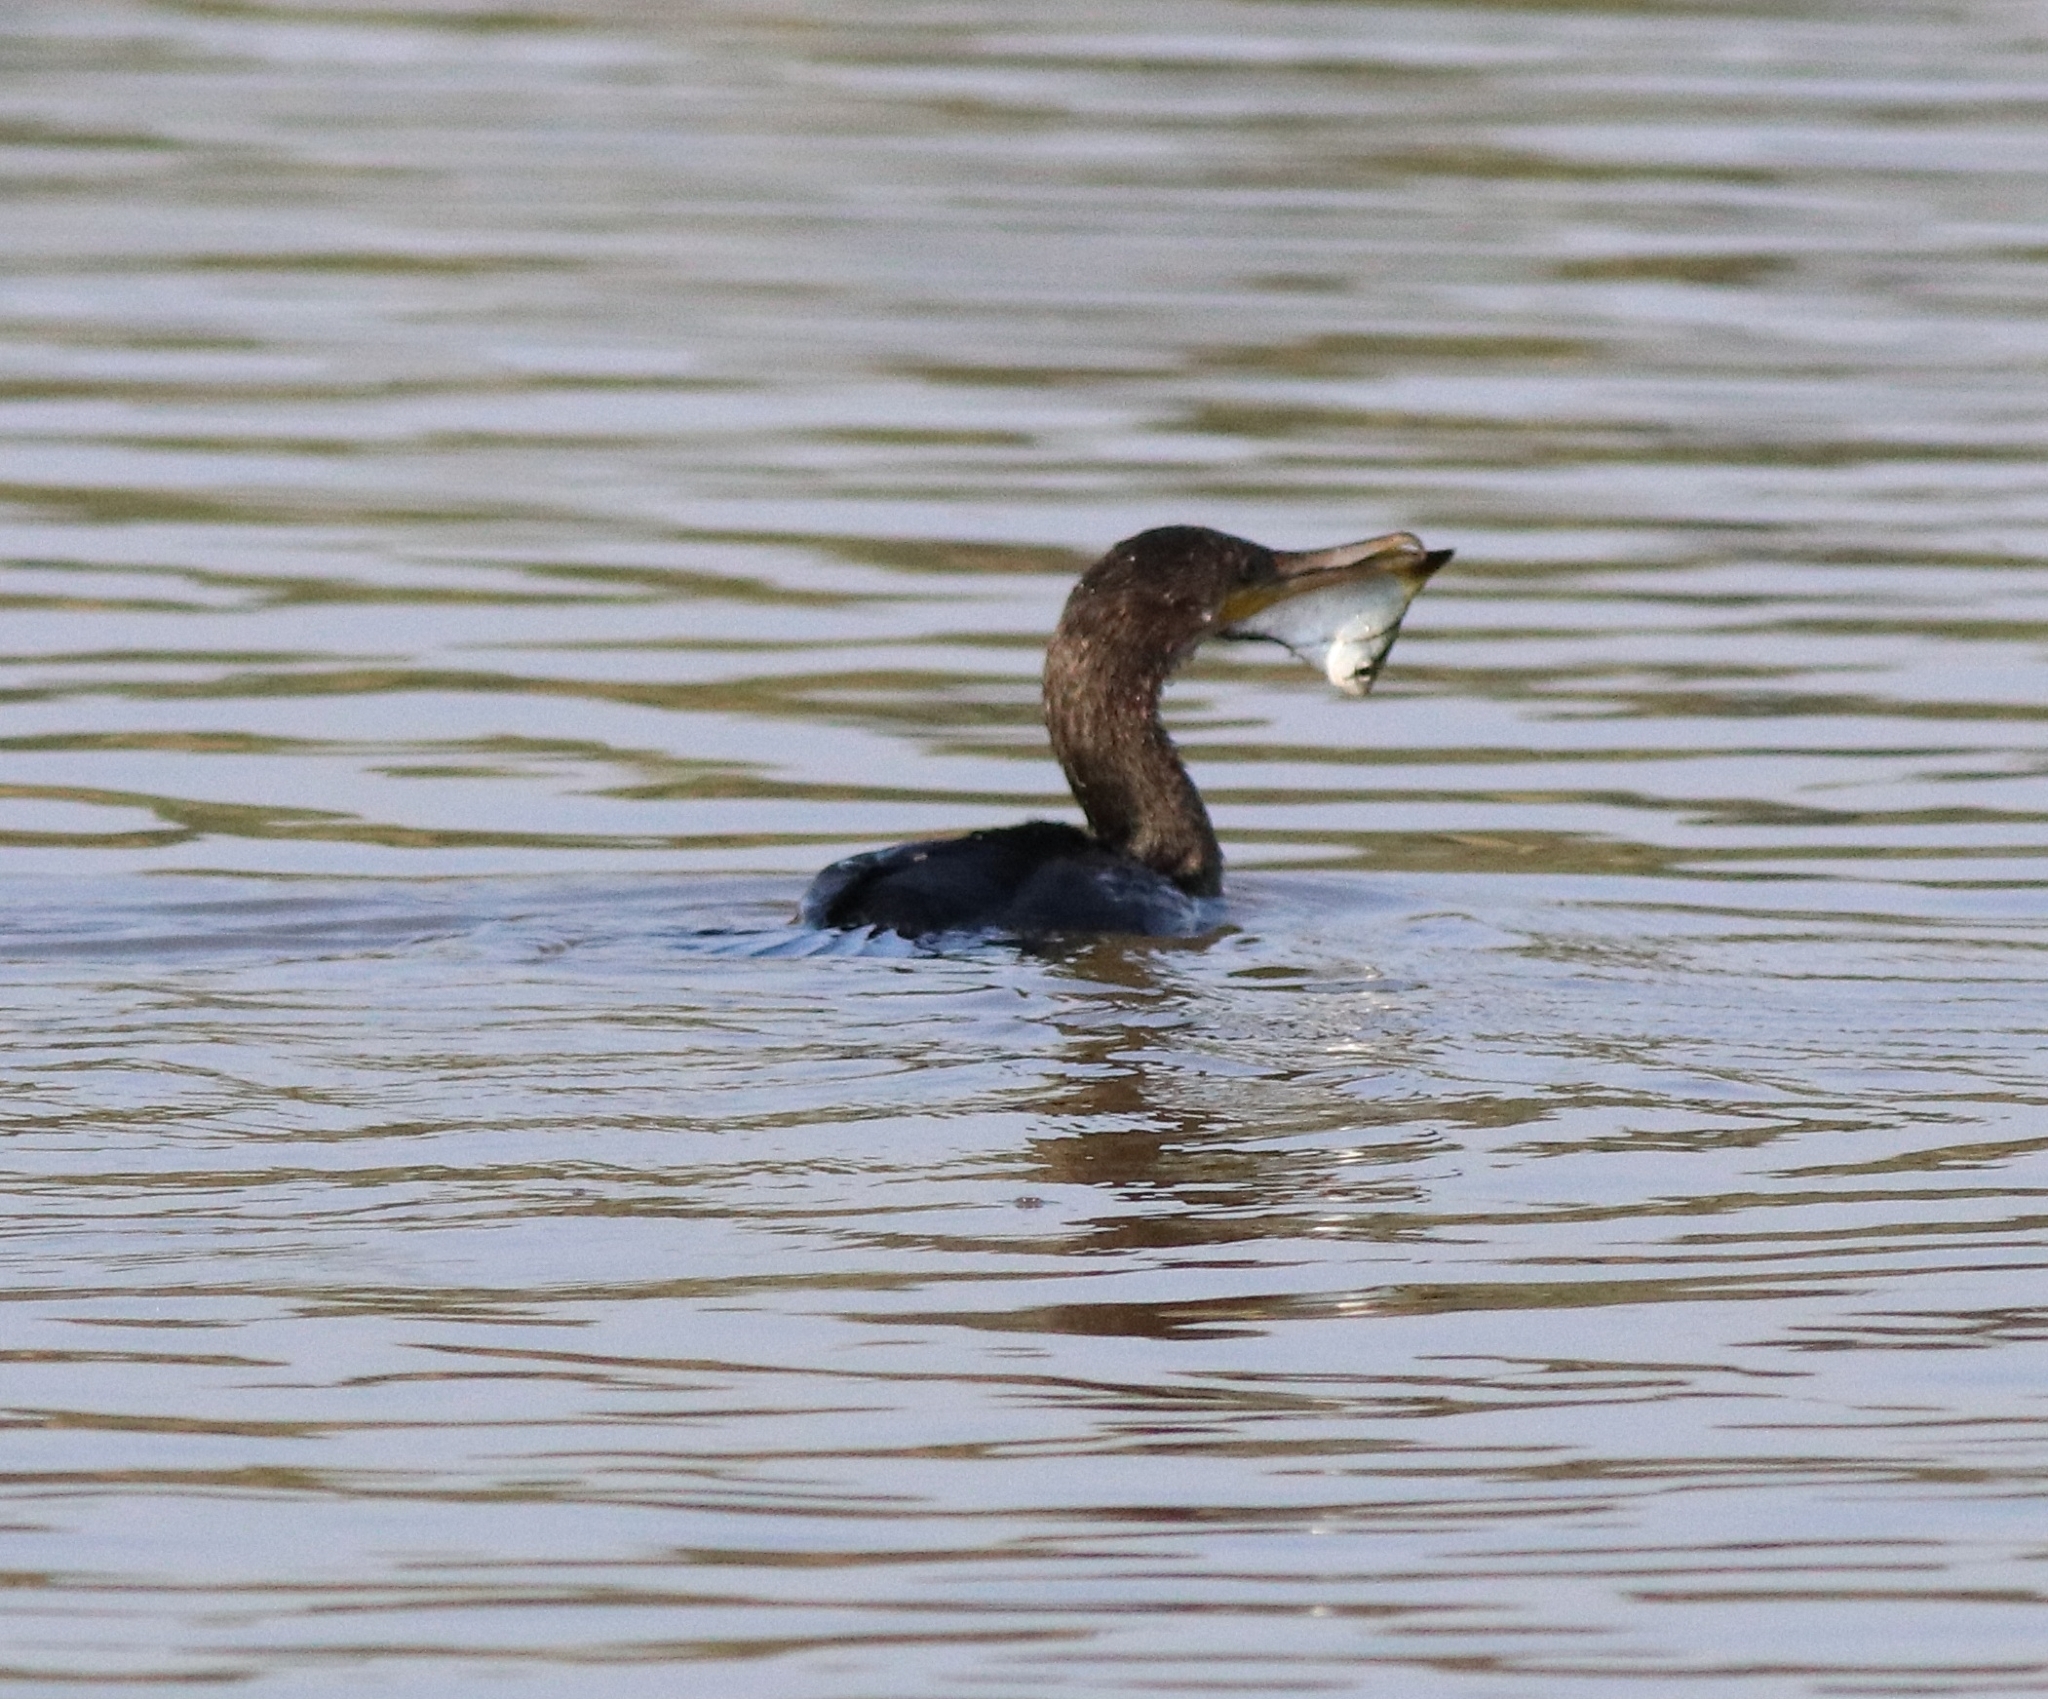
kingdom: Animalia
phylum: Chordata
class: Aves
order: Suliformes
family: Phalacrocoracidae
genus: Phalacrocorax
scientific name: Phalacrocorax fuscicollis
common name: Indian cormorant
